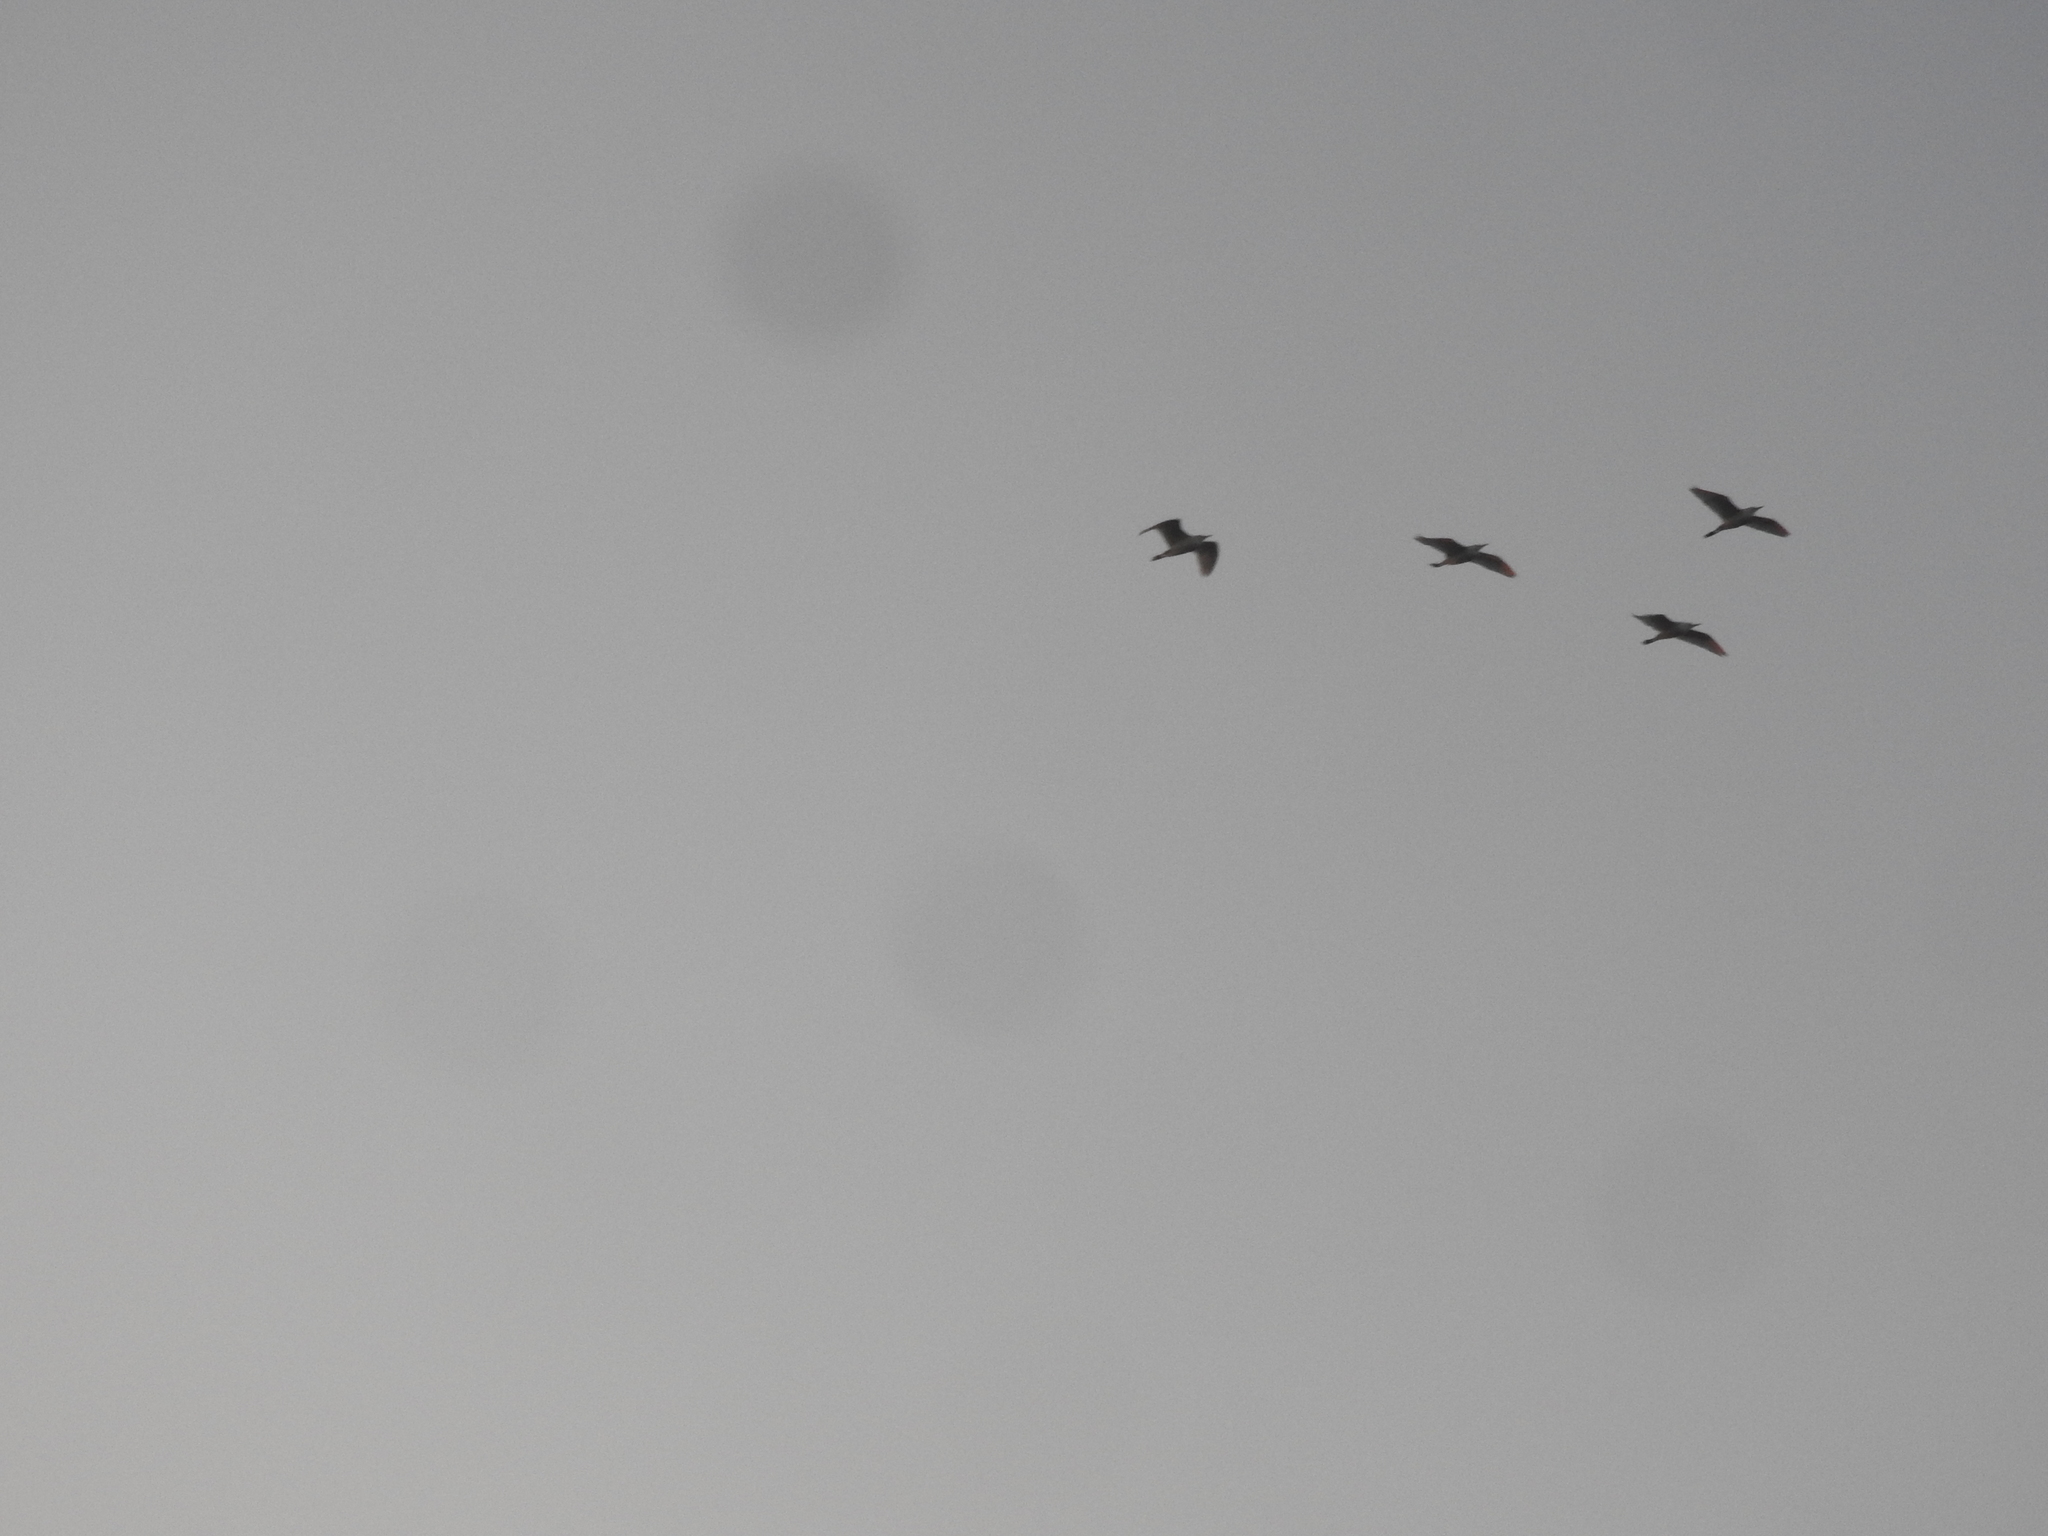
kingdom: Animalia
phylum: Chordata
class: Aves
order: Pelecaniformes
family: Ardeidae
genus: Bubulcus
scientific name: Bubulcus ibis
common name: Cattle egret
